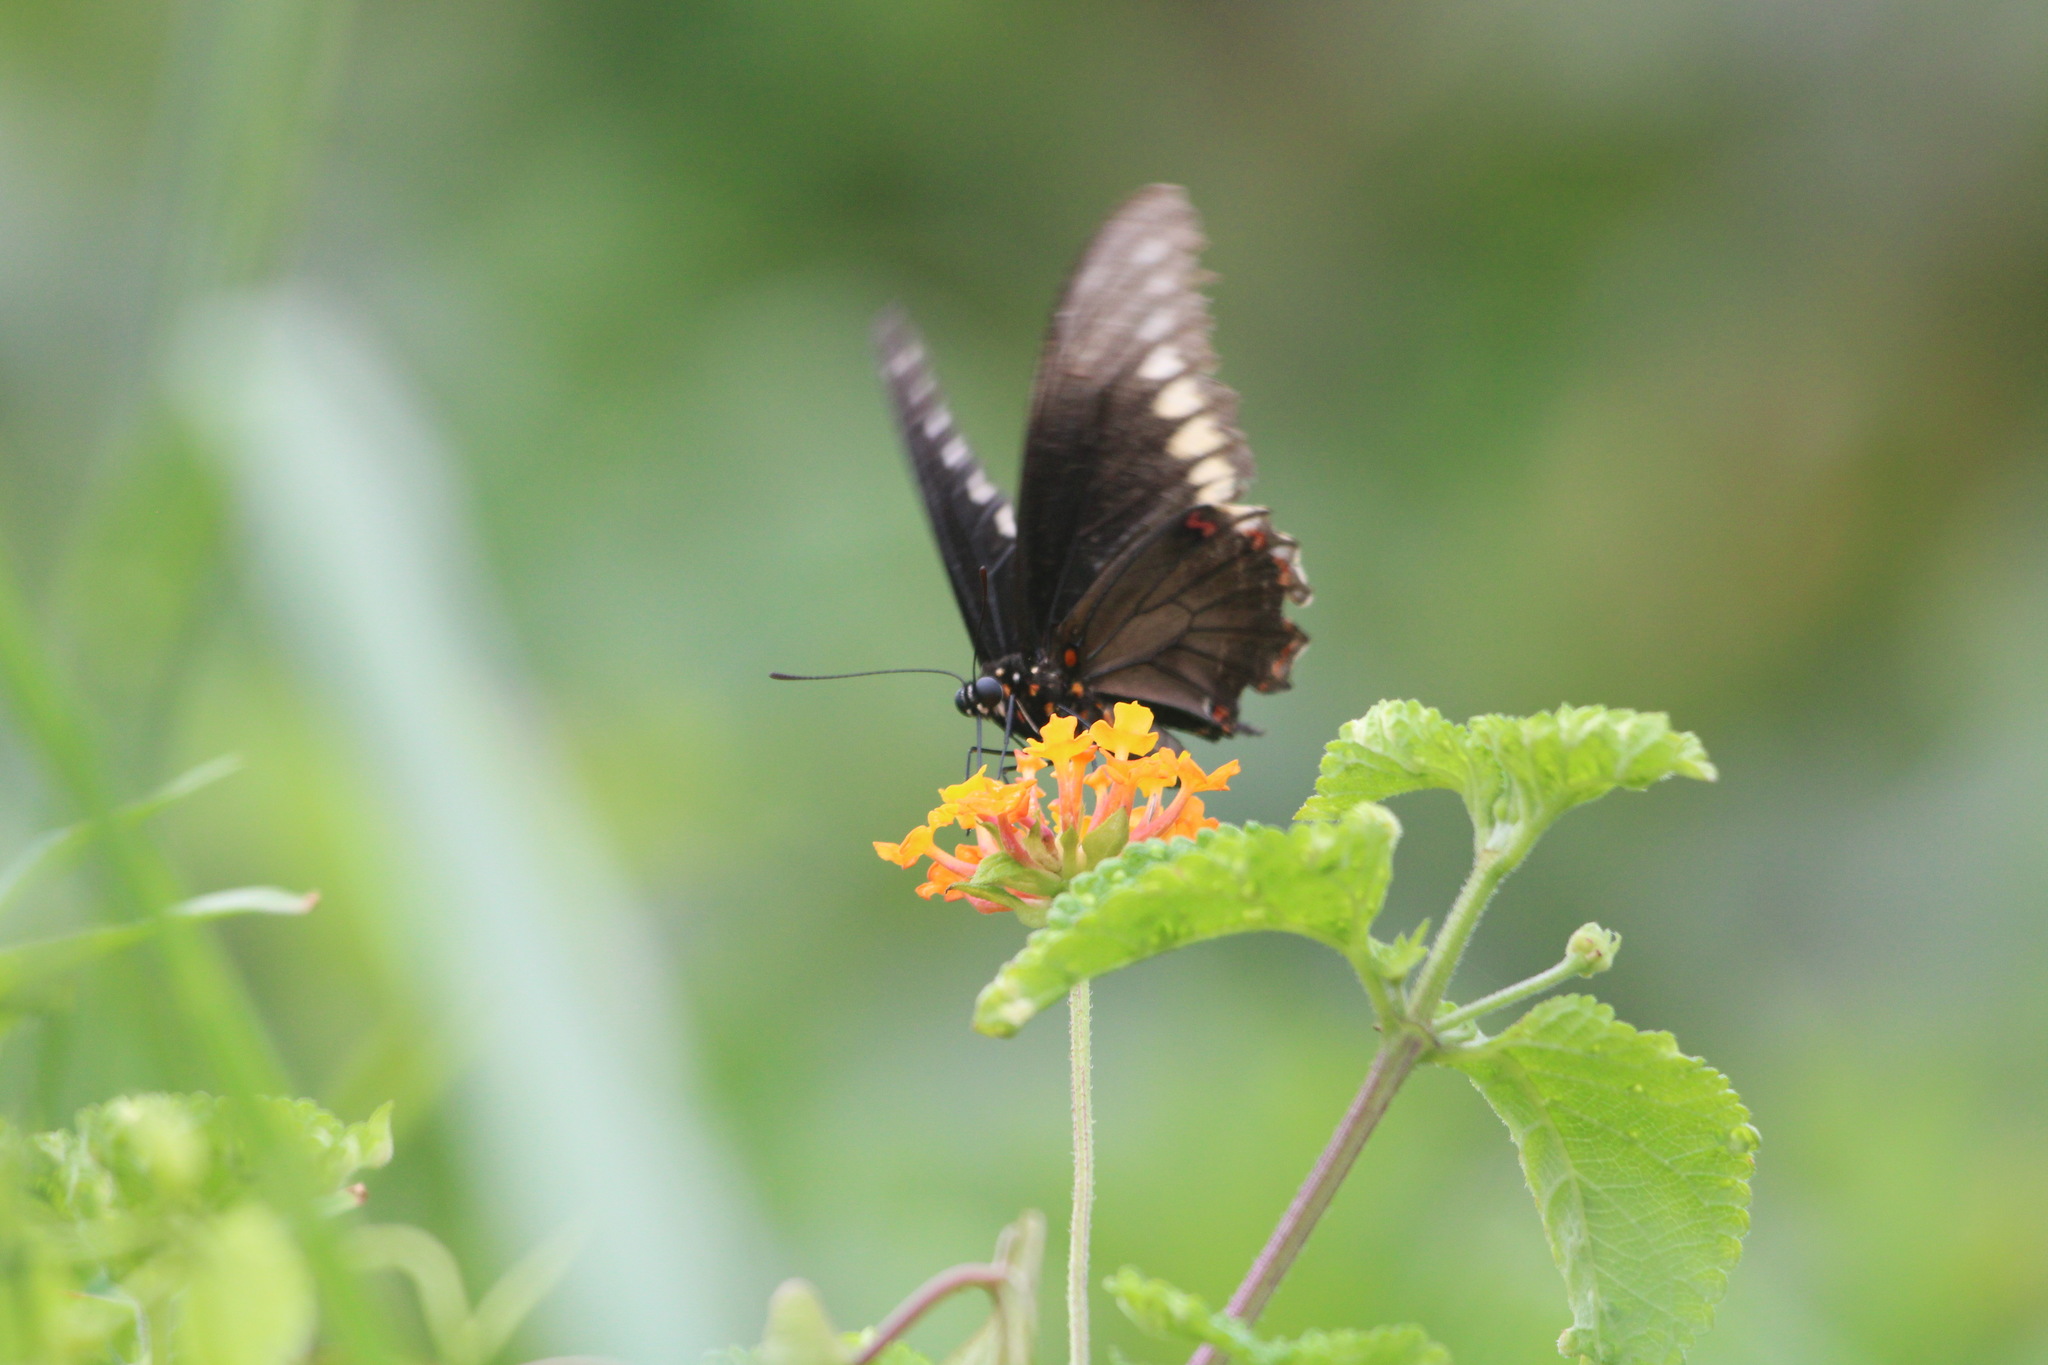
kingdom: Animalia
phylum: Arthropoda
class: Insecta
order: Lepidoptera
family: Papilionidae
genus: Battus
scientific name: Battus polydamas
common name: Polydamas swallowtail
